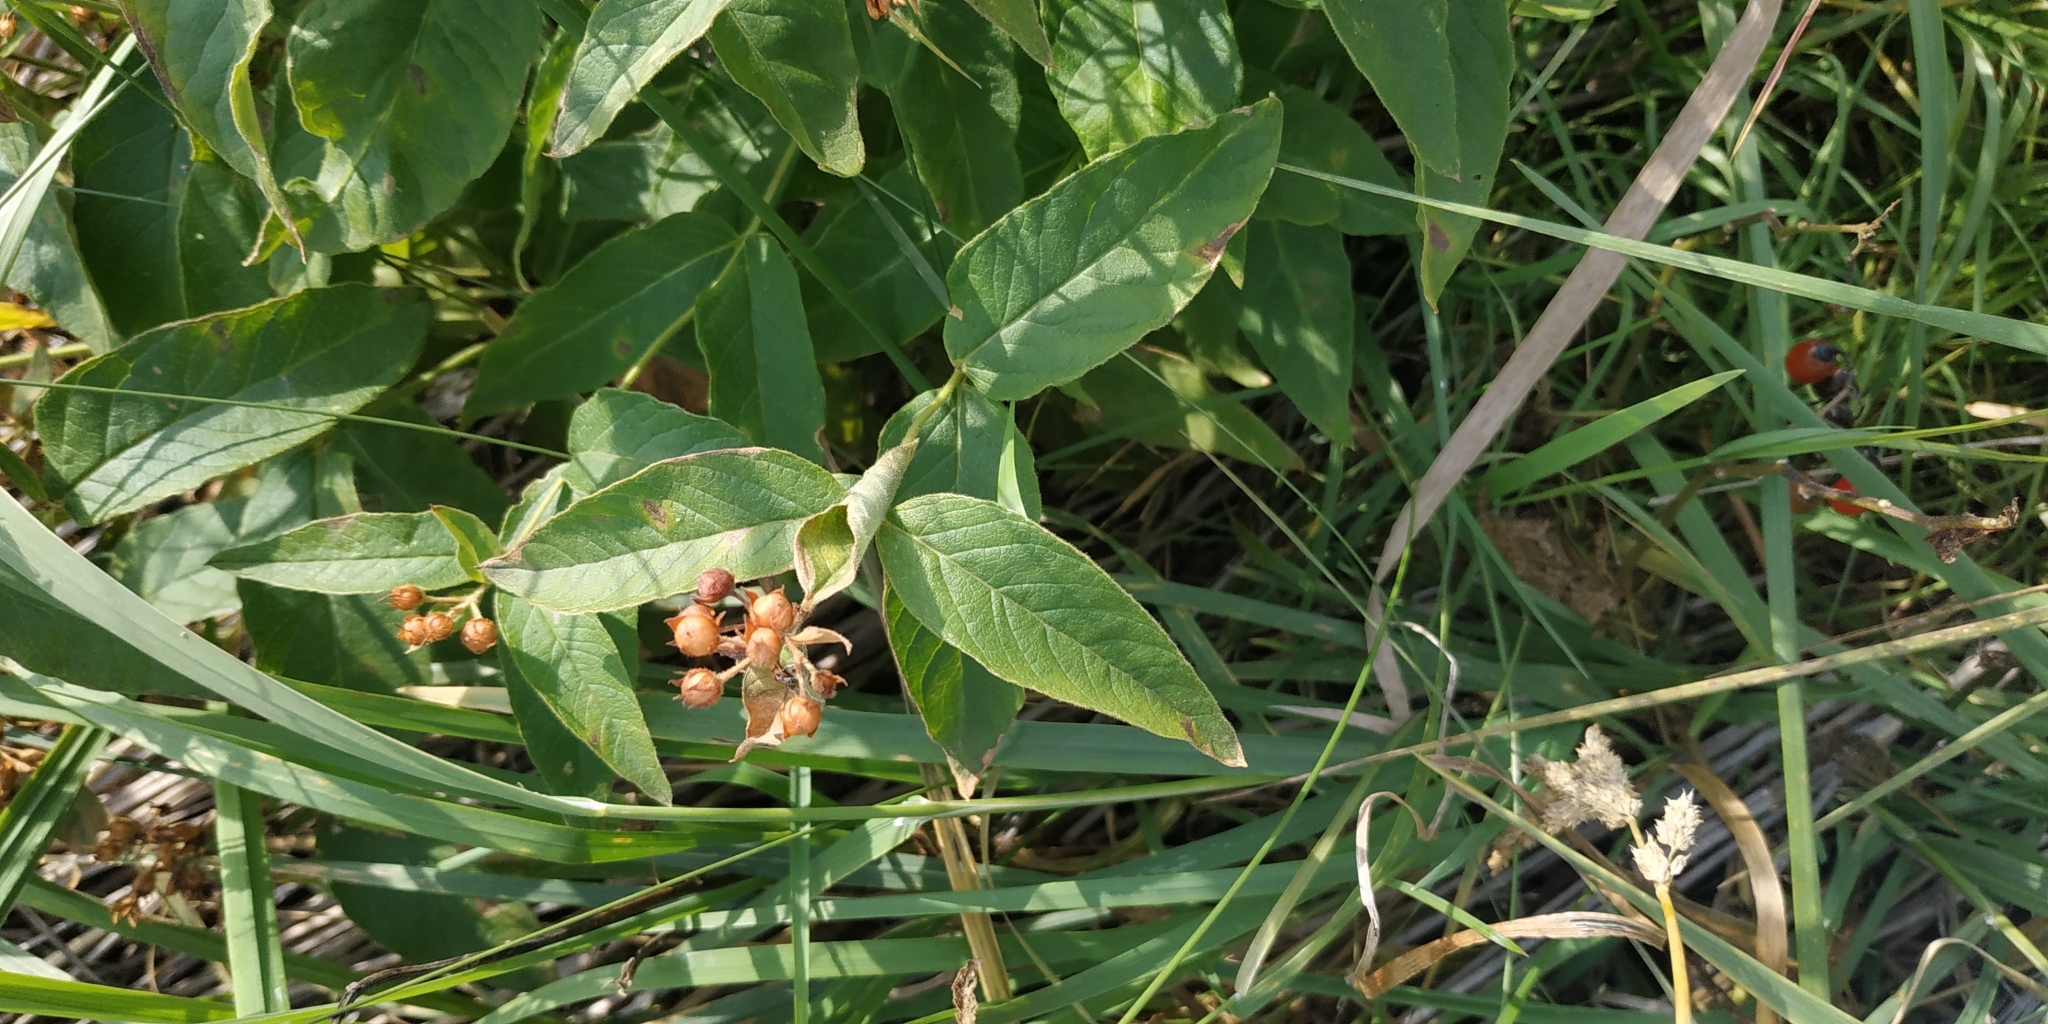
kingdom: Plantae
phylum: Tracheophyta
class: Magnoliopsida
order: Ericales
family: Primulaceae
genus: Lysimachia
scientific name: Lysimachia vulgaris
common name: Yellow loosestrife
